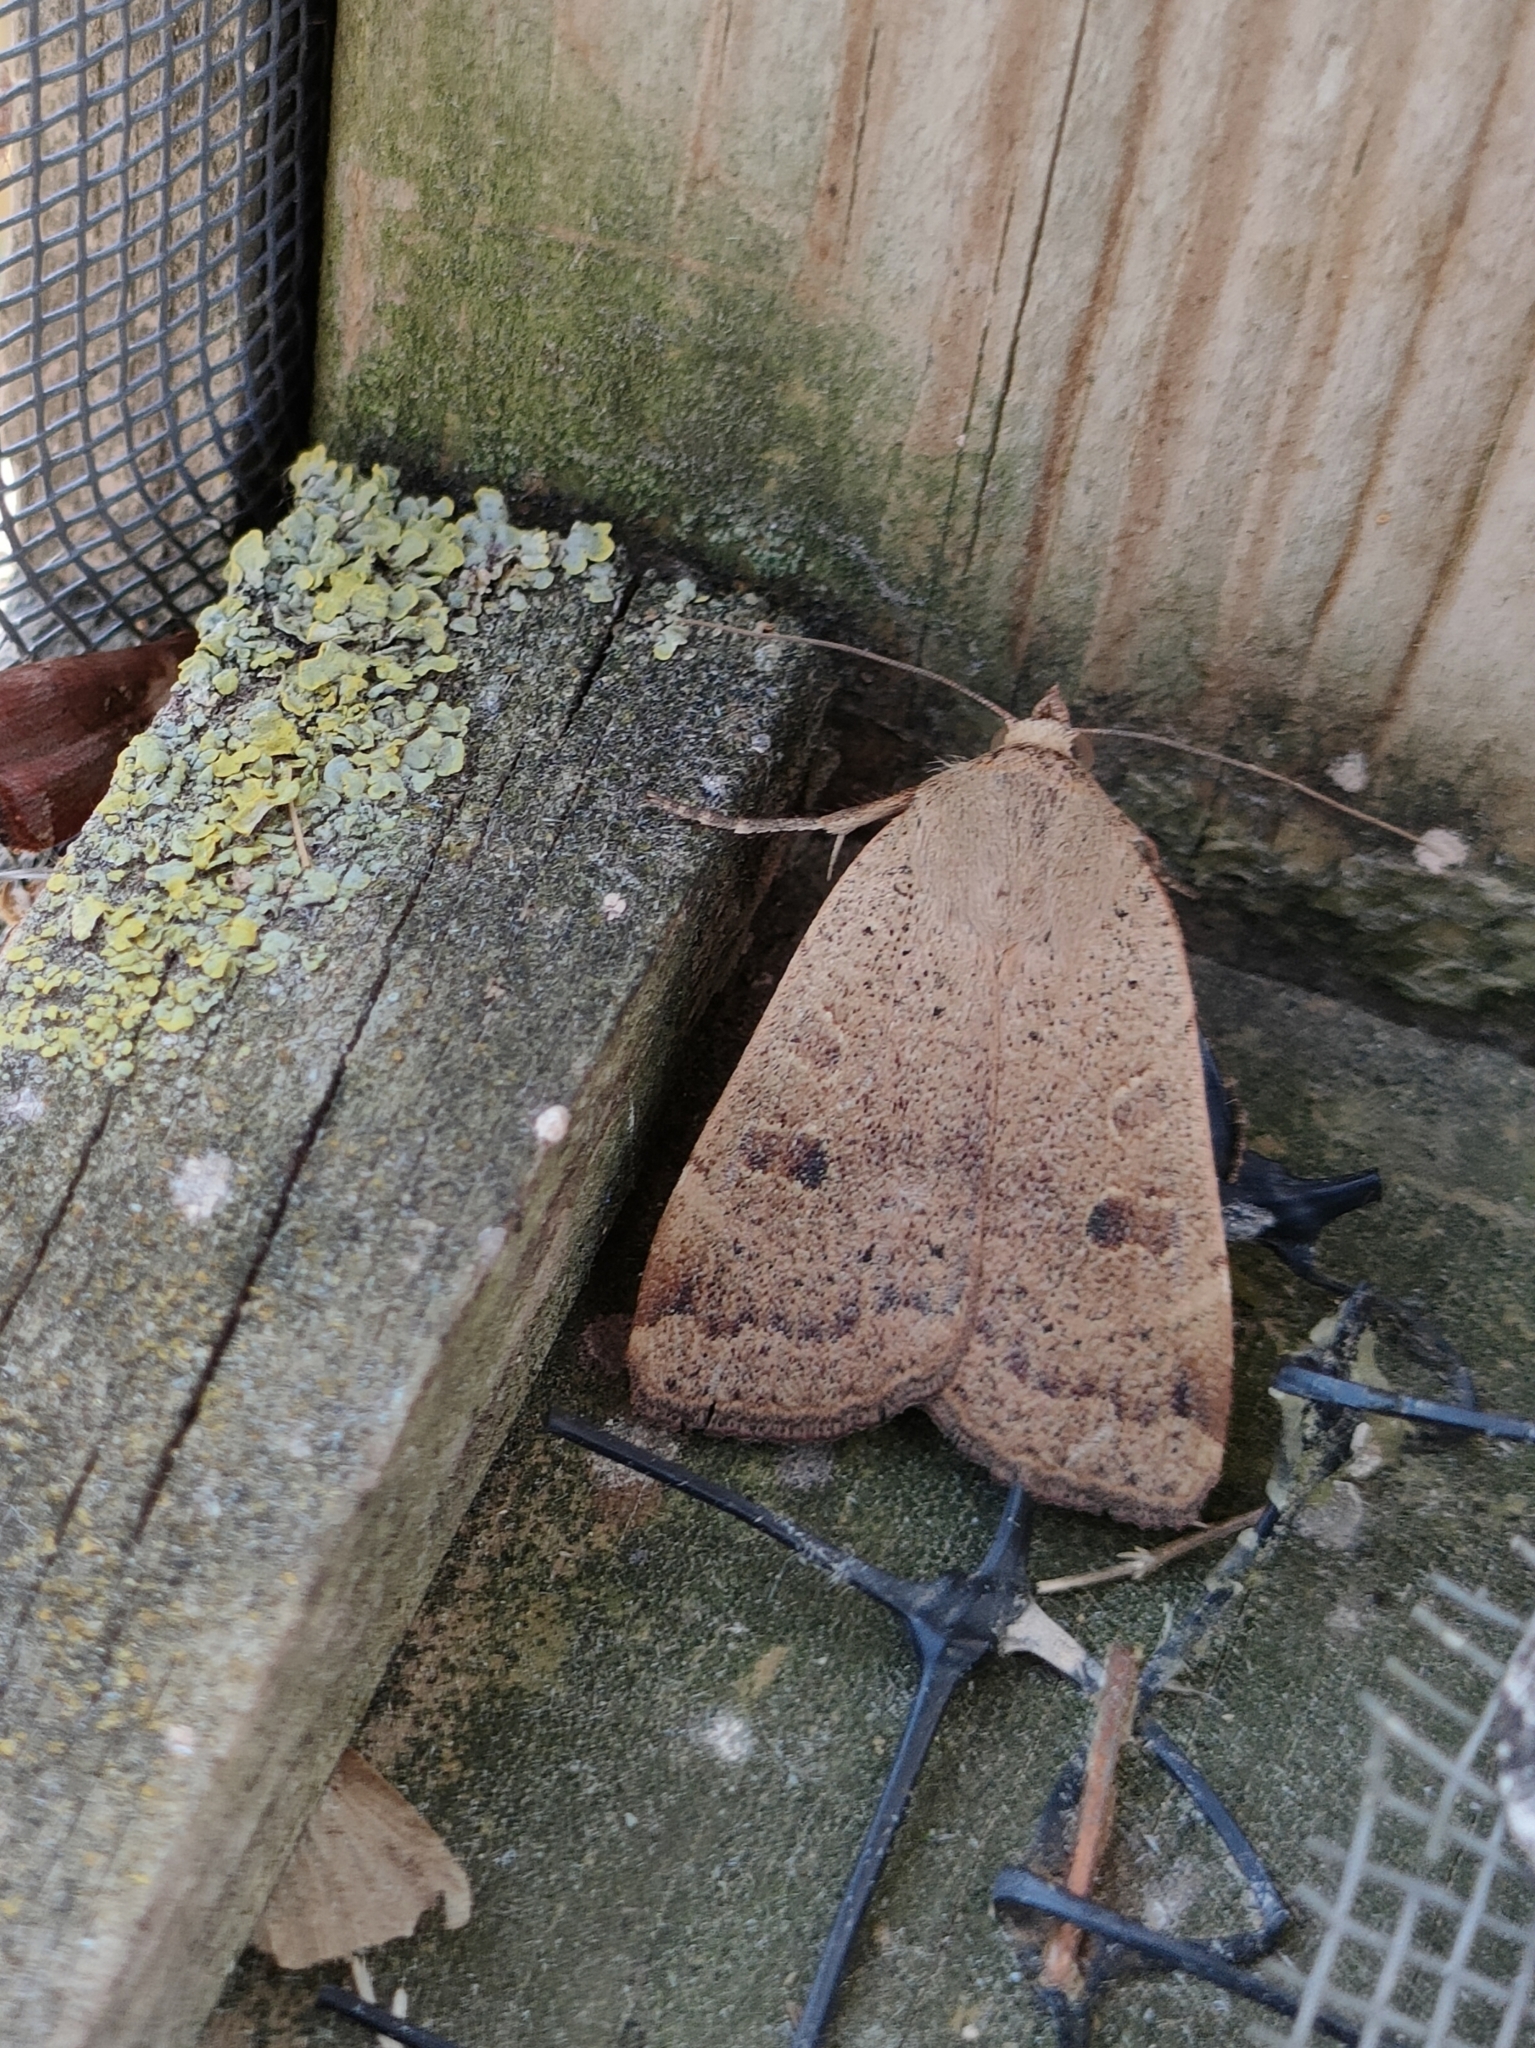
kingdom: Animalia
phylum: Arthropoda
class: Insecta
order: Lepidoptera
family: Noctuidae
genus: Noctua
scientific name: Noctua comes
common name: Lesser yellow underwing
